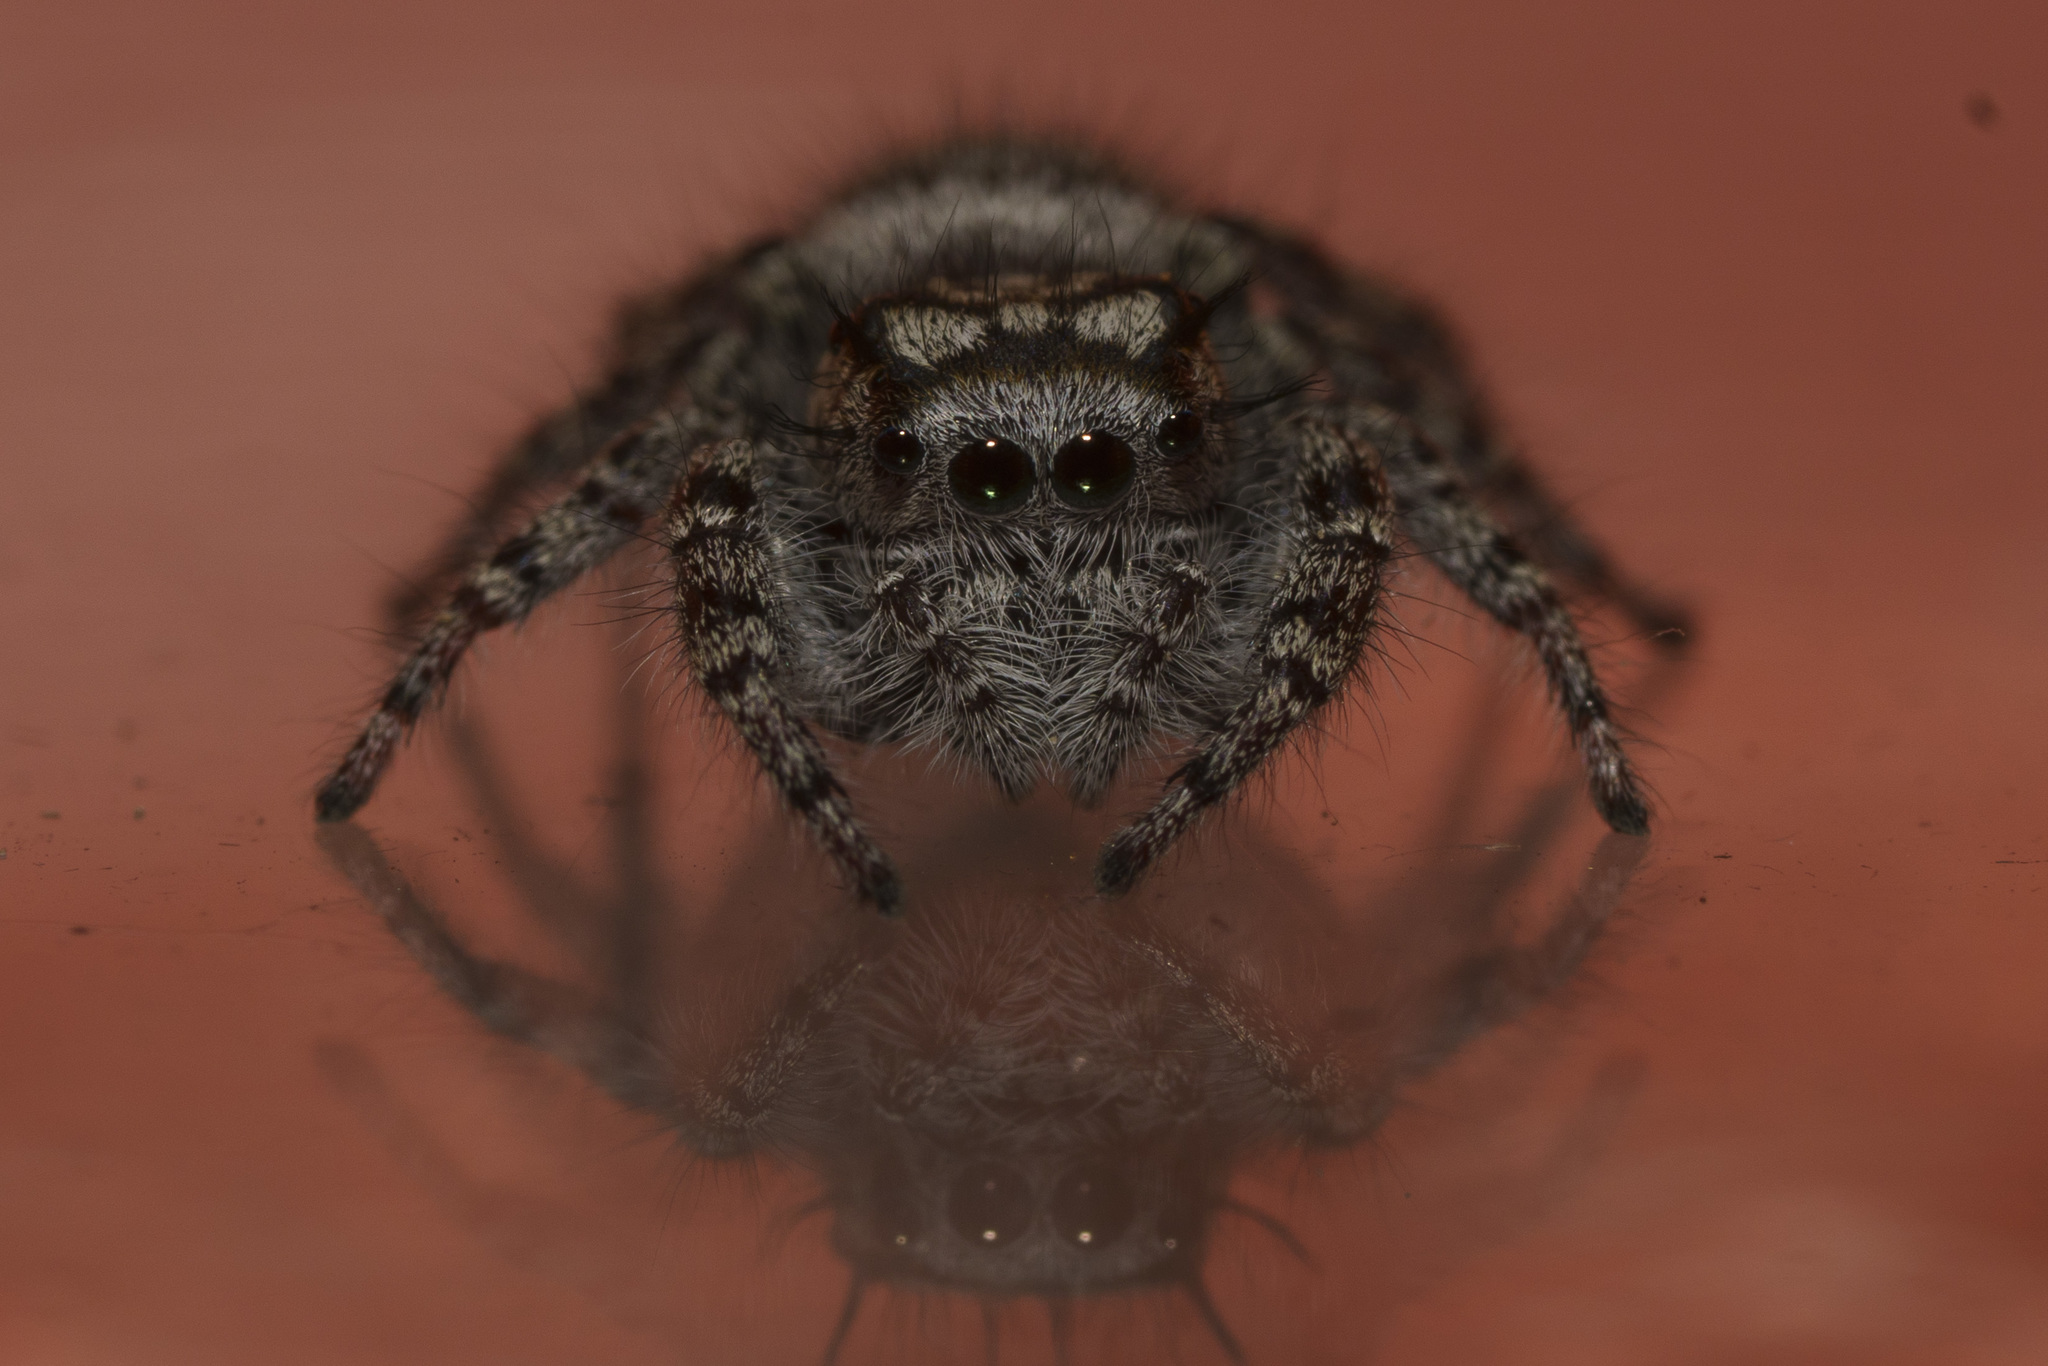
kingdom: Animalia
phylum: Arthropoda
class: Arachnida
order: Araneae
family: Salticidae
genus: Phidippus
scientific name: Phidippus mystaceus
